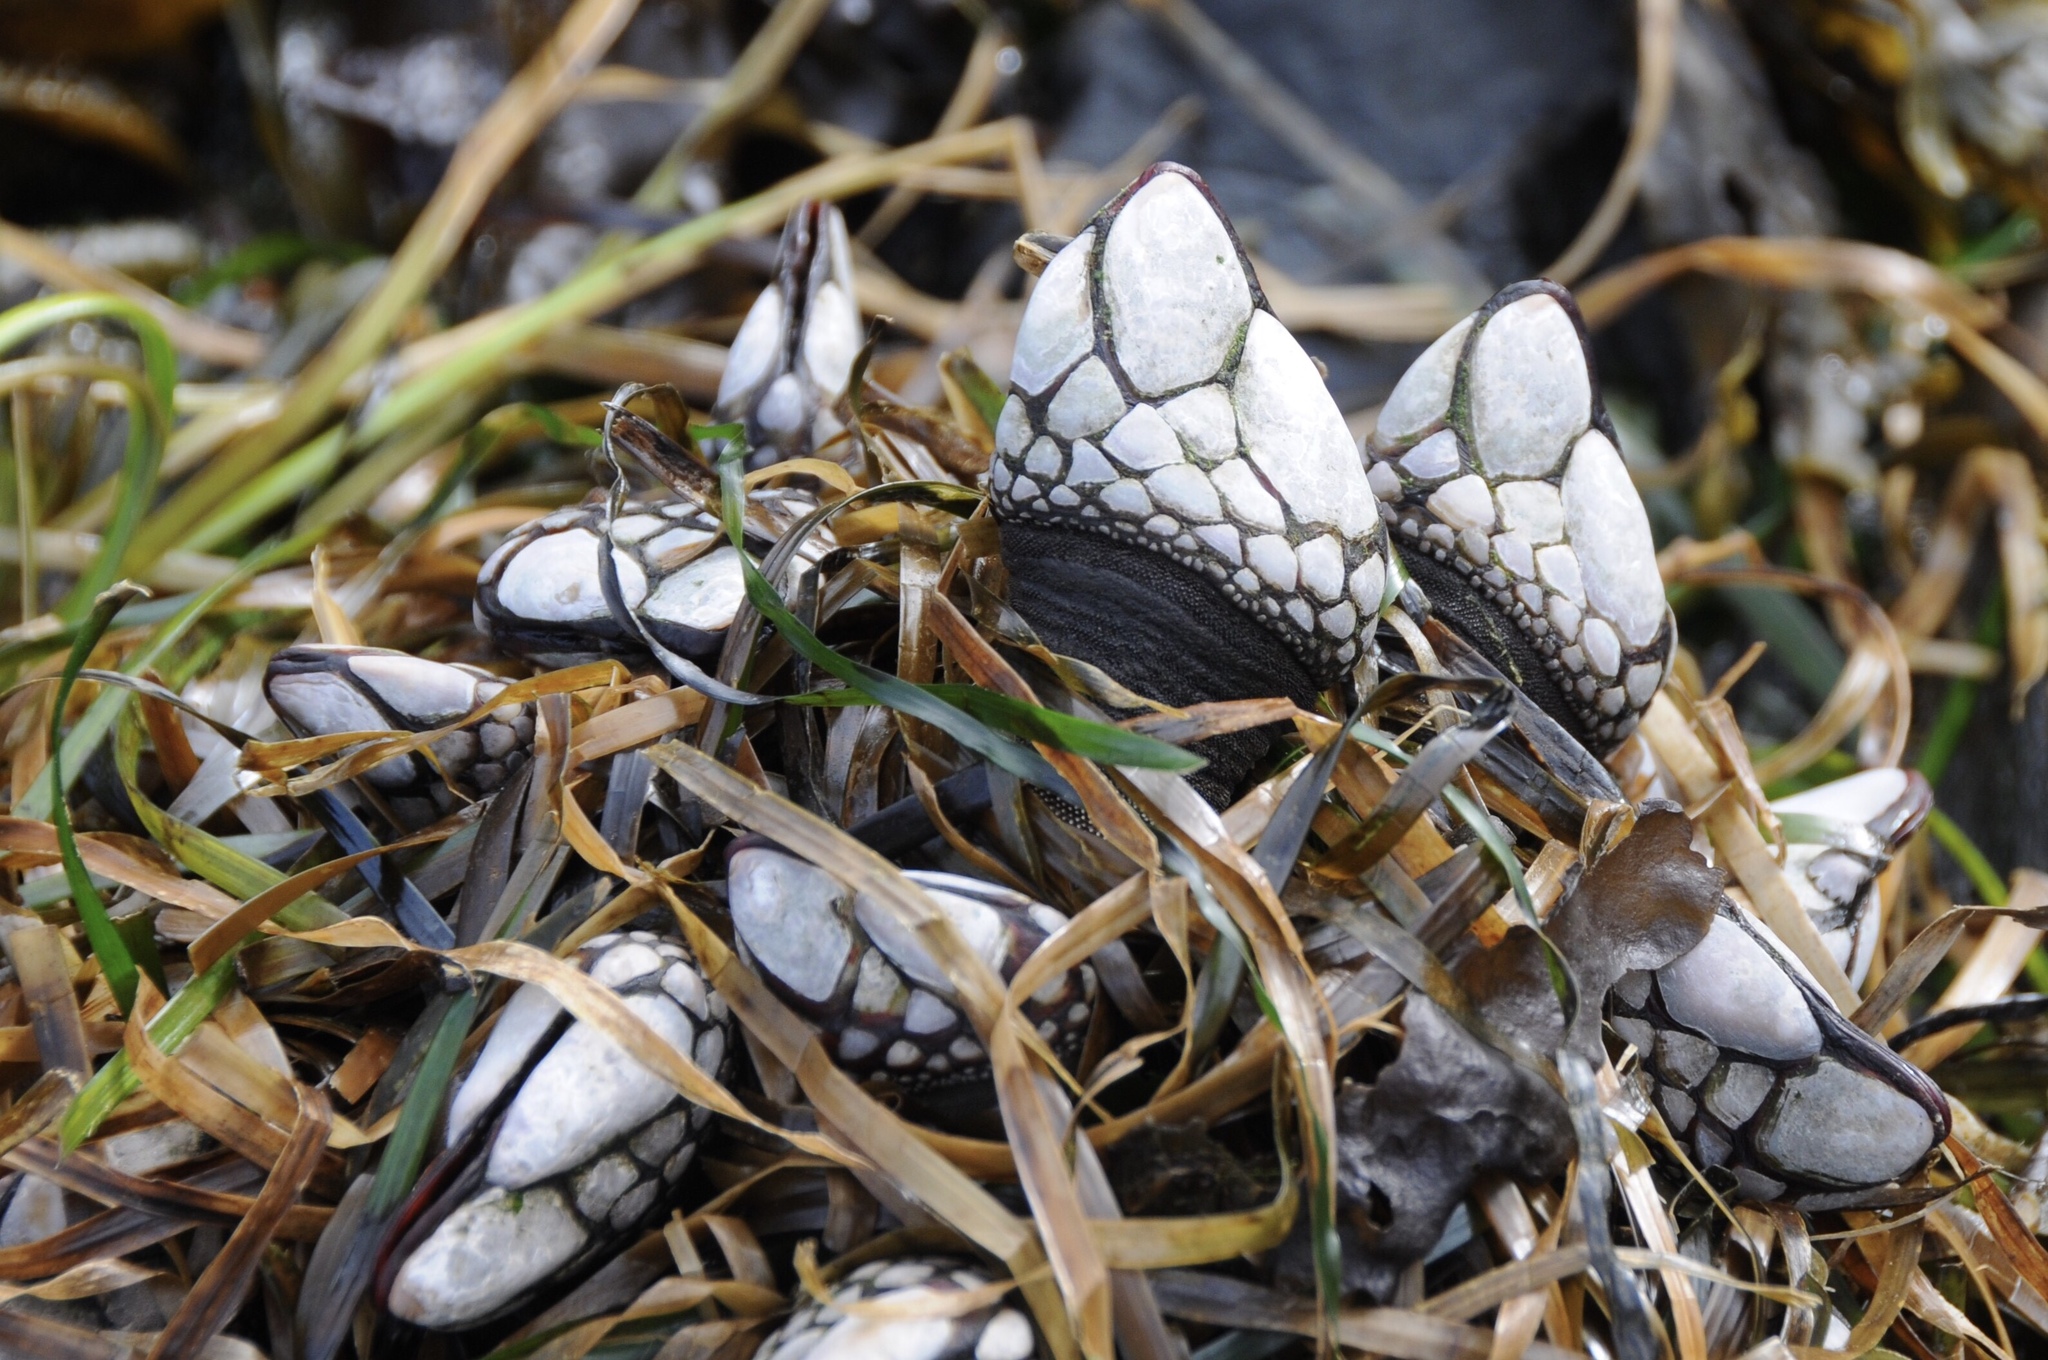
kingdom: Animalia
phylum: Arthropoda
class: Maxillopoda
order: Pedunculata
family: Pollicipedidae
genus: Pollicipes
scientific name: Pollicipes polymerus
